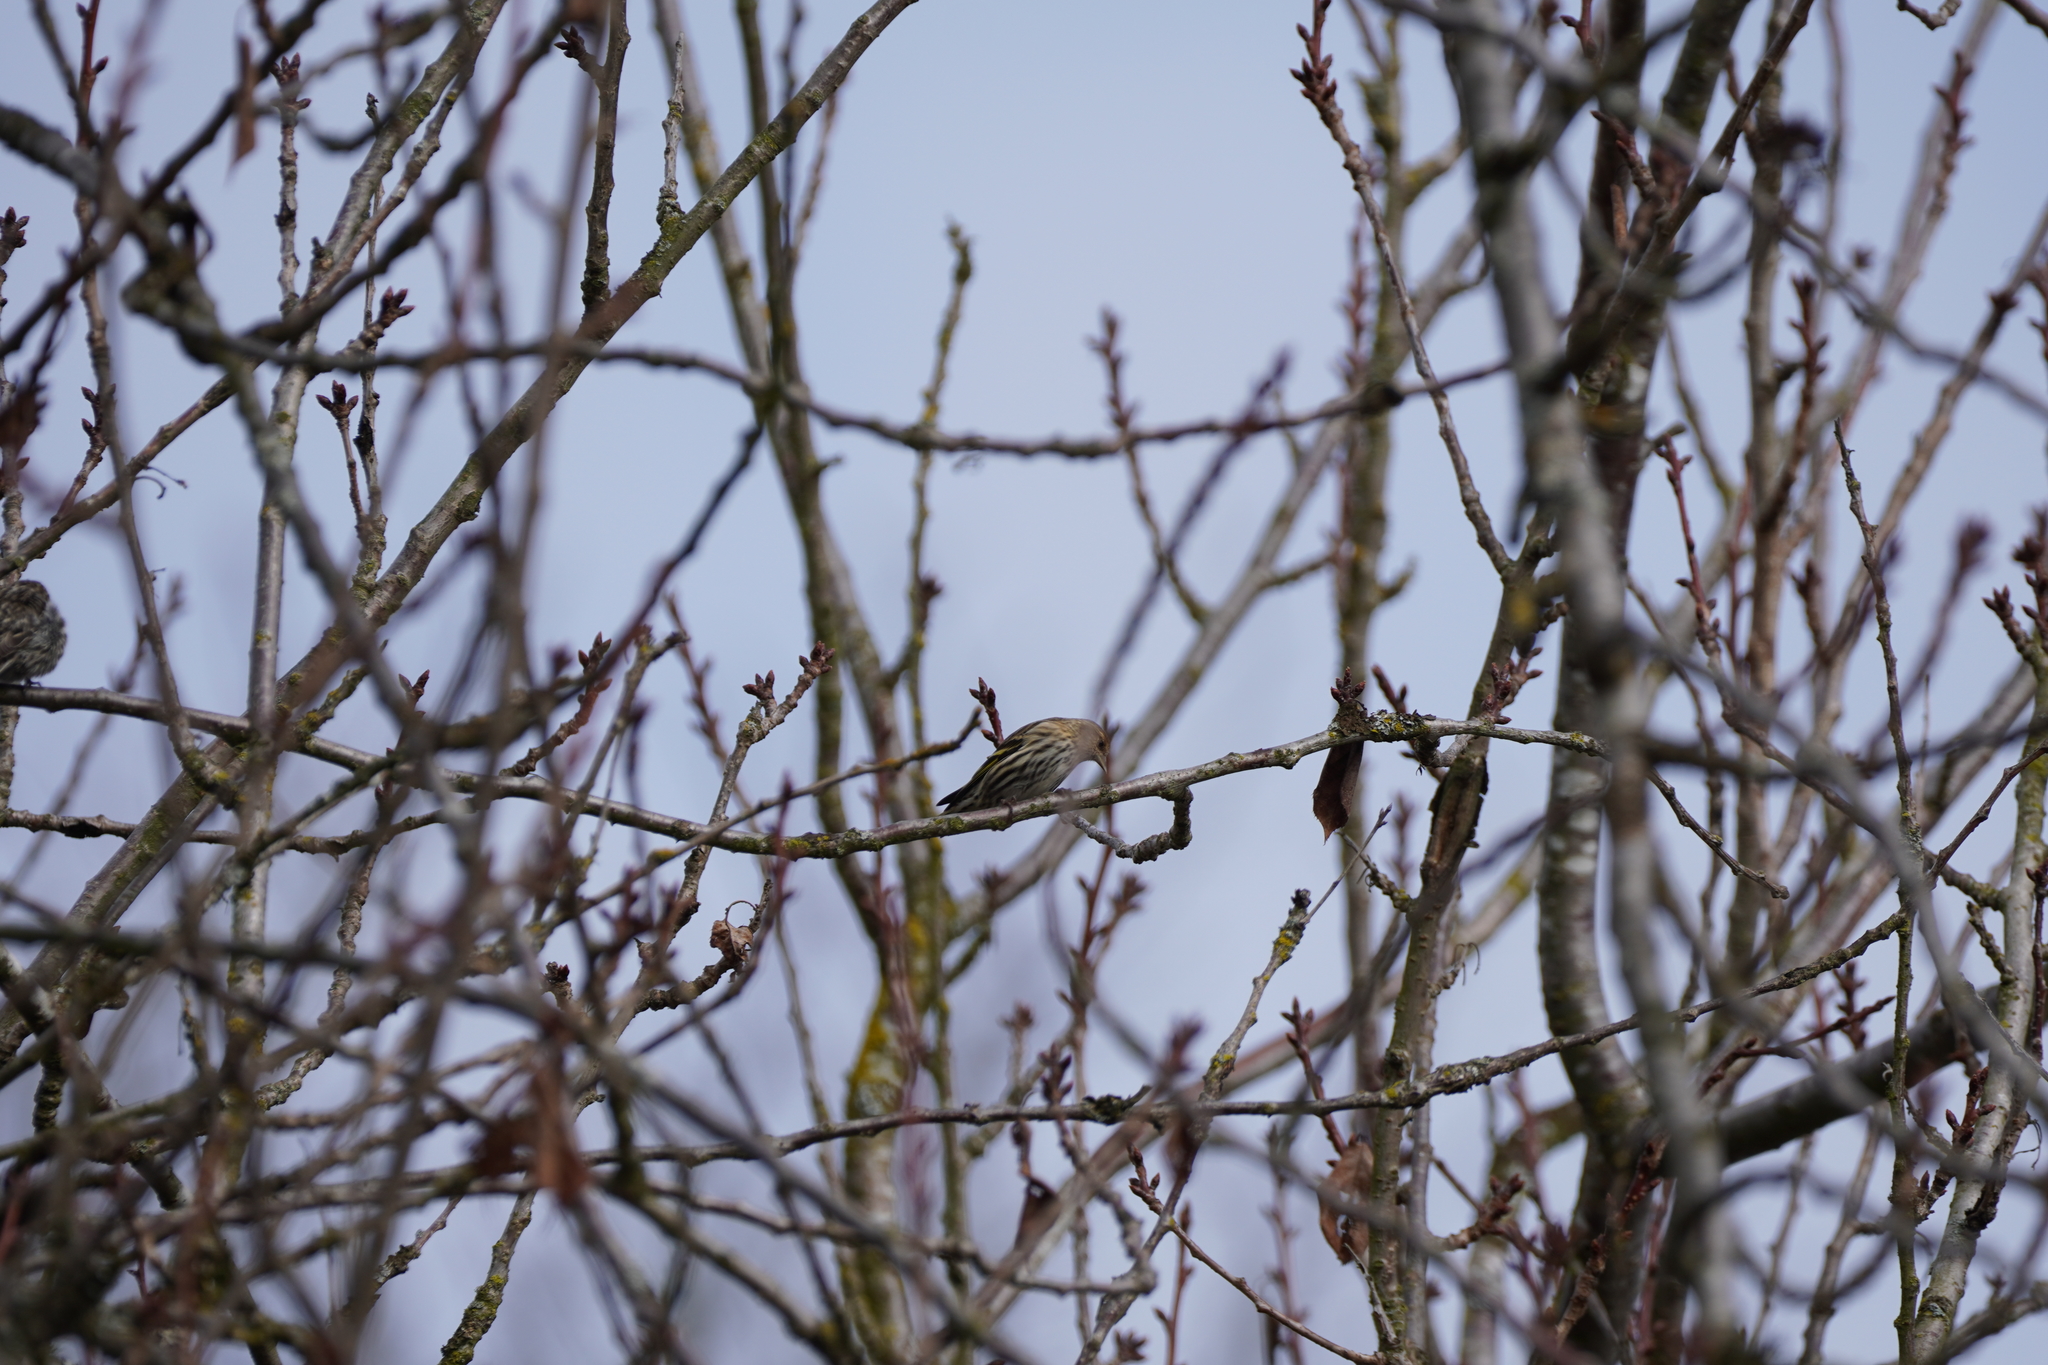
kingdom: Animalia
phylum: Chordata
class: Aves
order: Passeriformes
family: Fringillidae
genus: Spinus
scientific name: Spinus pinus
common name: Pine siskin
